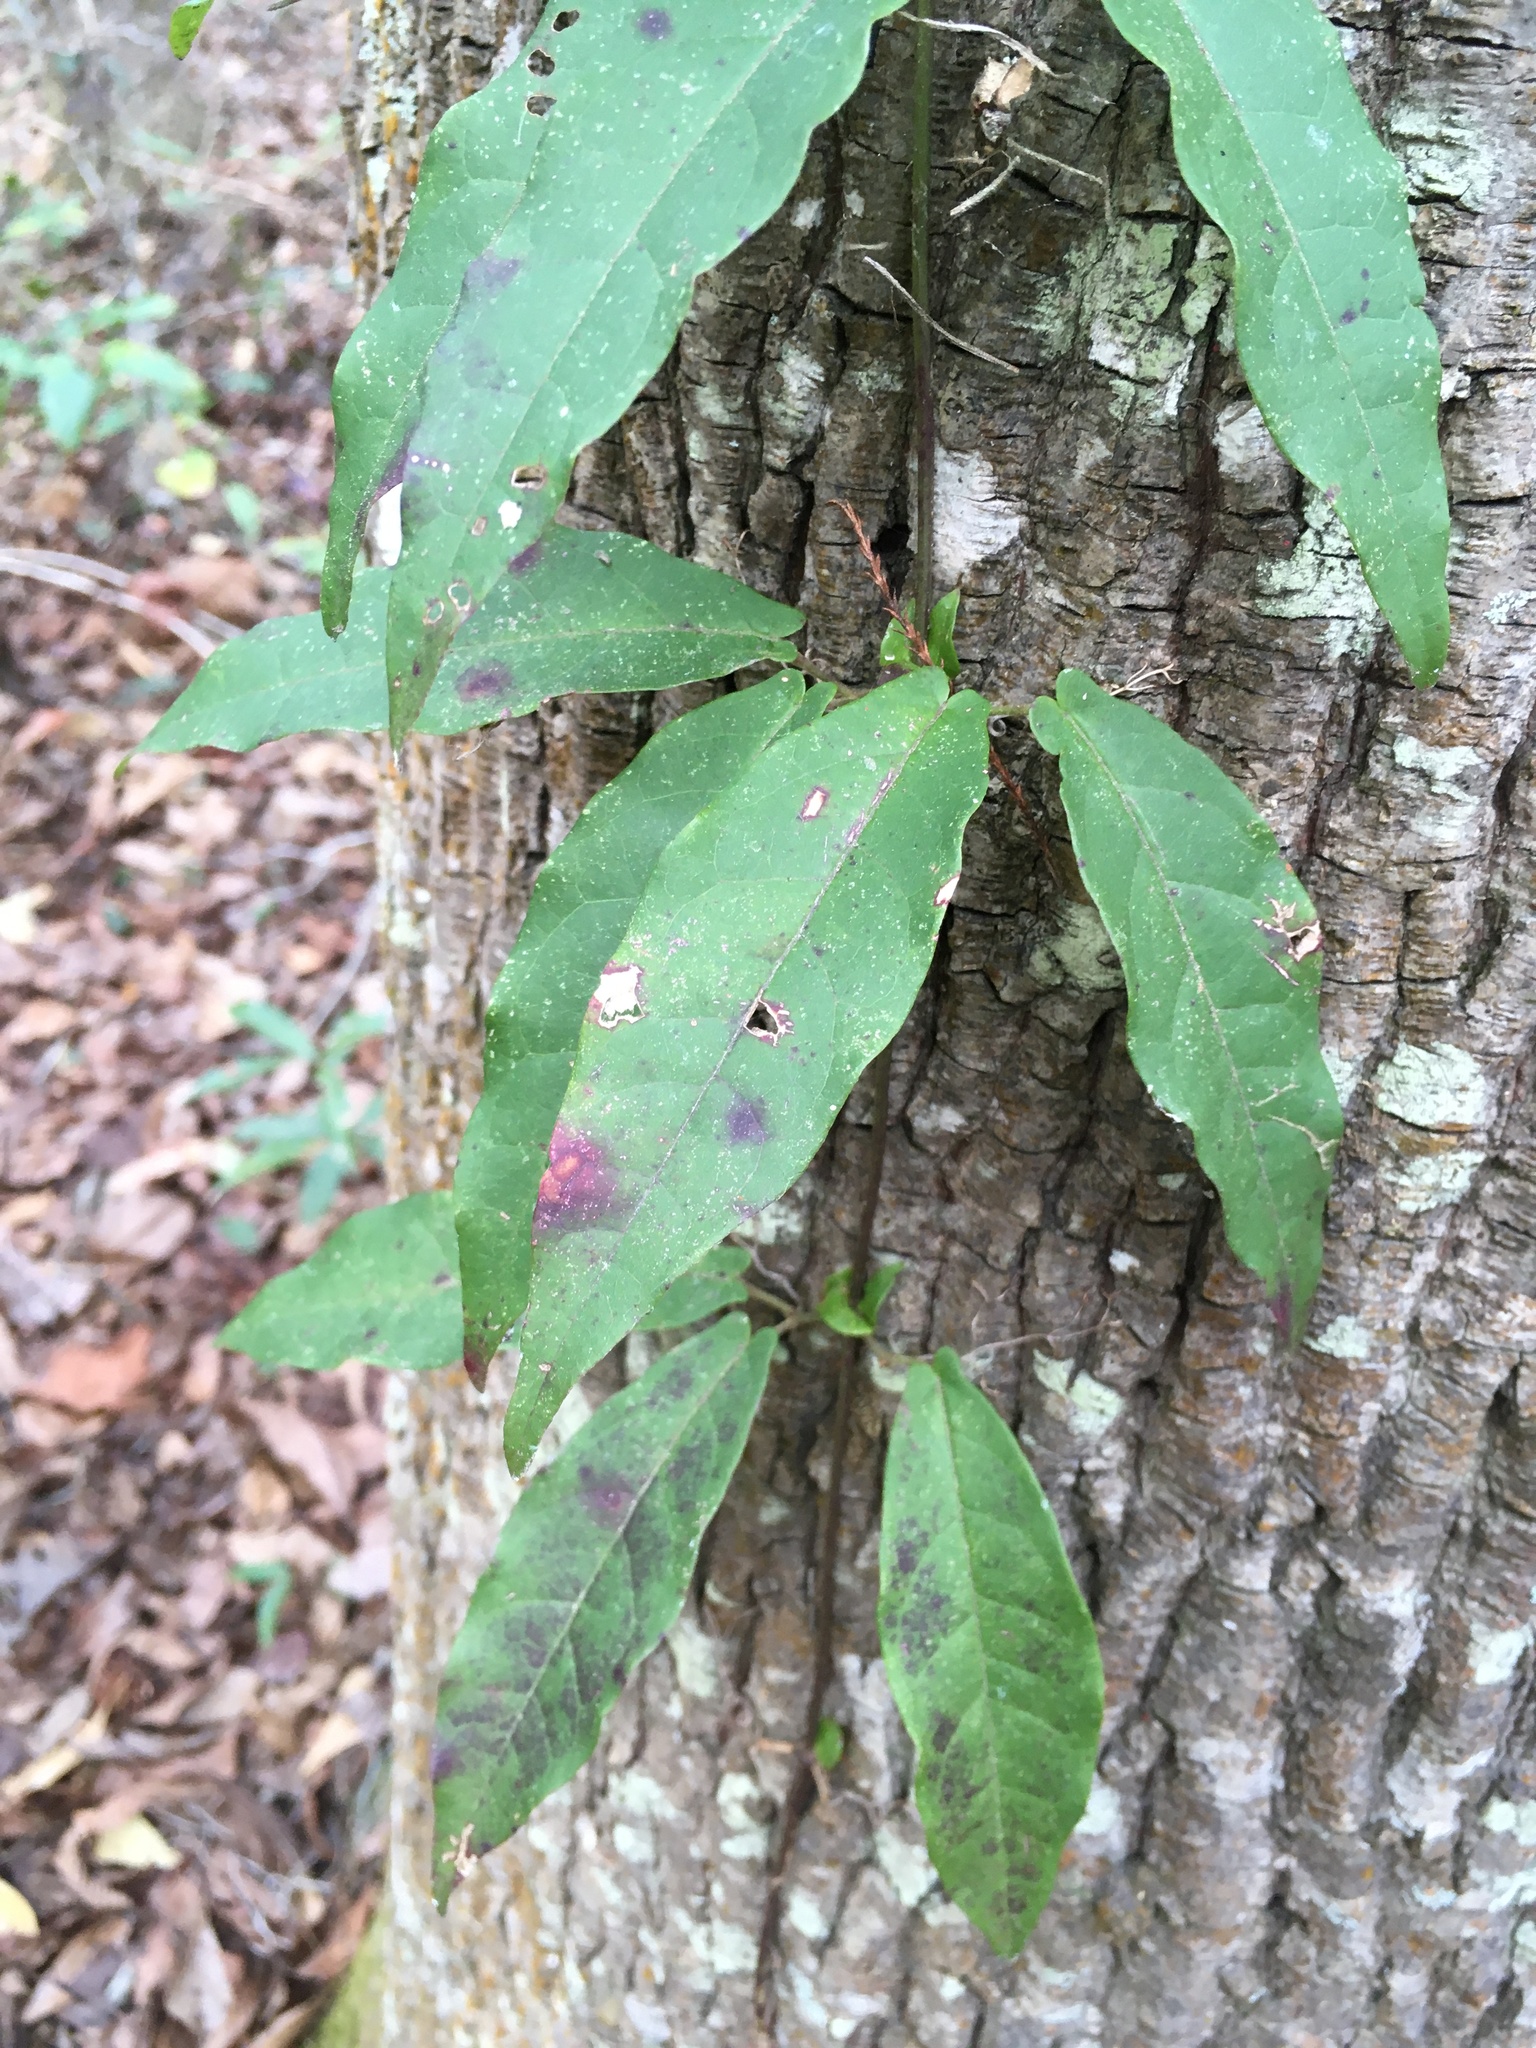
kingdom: Plantae
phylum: Tracheophyta
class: Magnoliopsida
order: Lamiales
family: Bignoniaceae
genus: Bignonia
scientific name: Bignonia capreolata
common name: Crossvine
